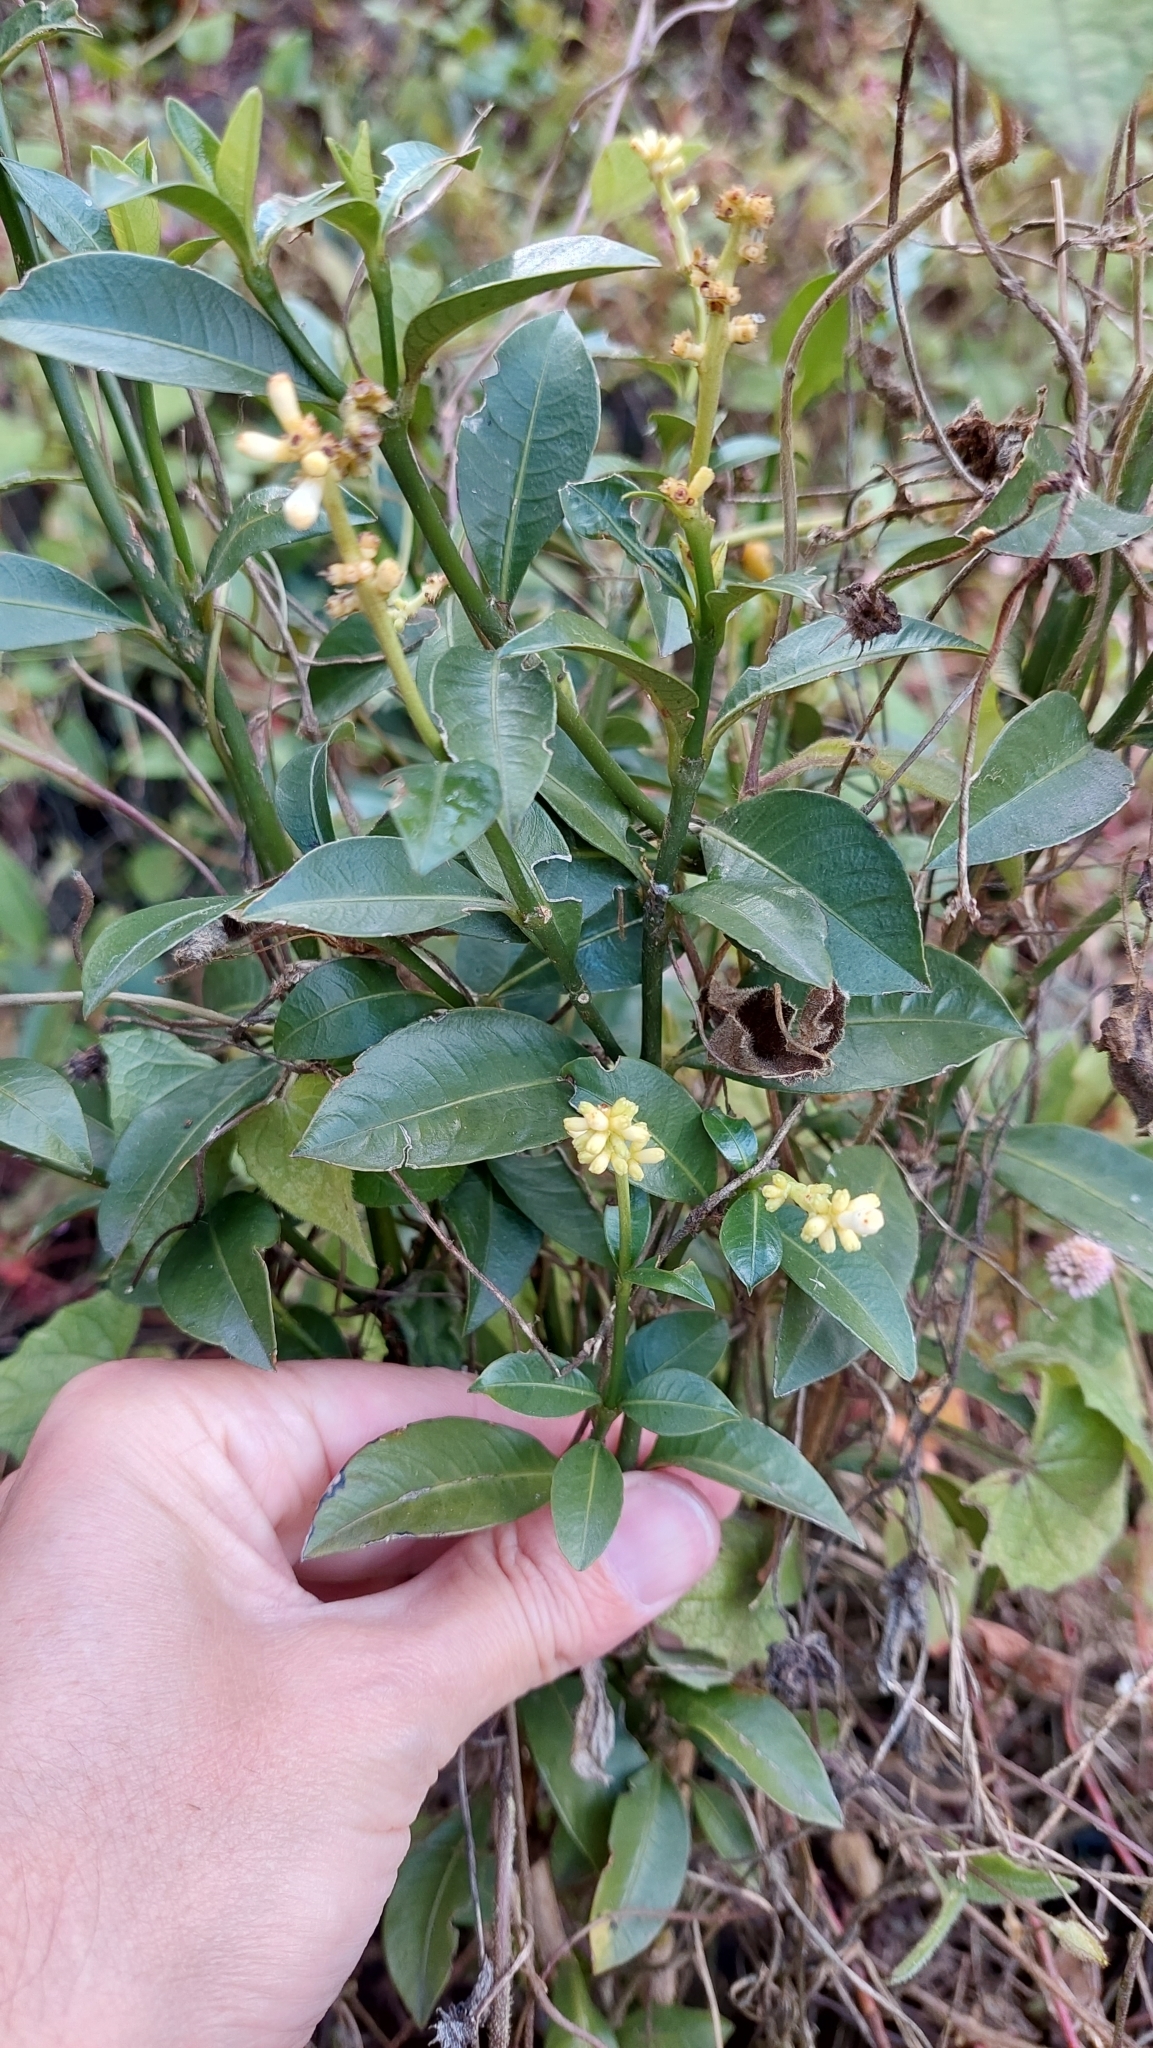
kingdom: Plantae
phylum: Tracheophyta
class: Magnoliopsida
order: Gentianales
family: Rubiaceae
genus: Palicourea
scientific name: Palicourea boqueronensis
